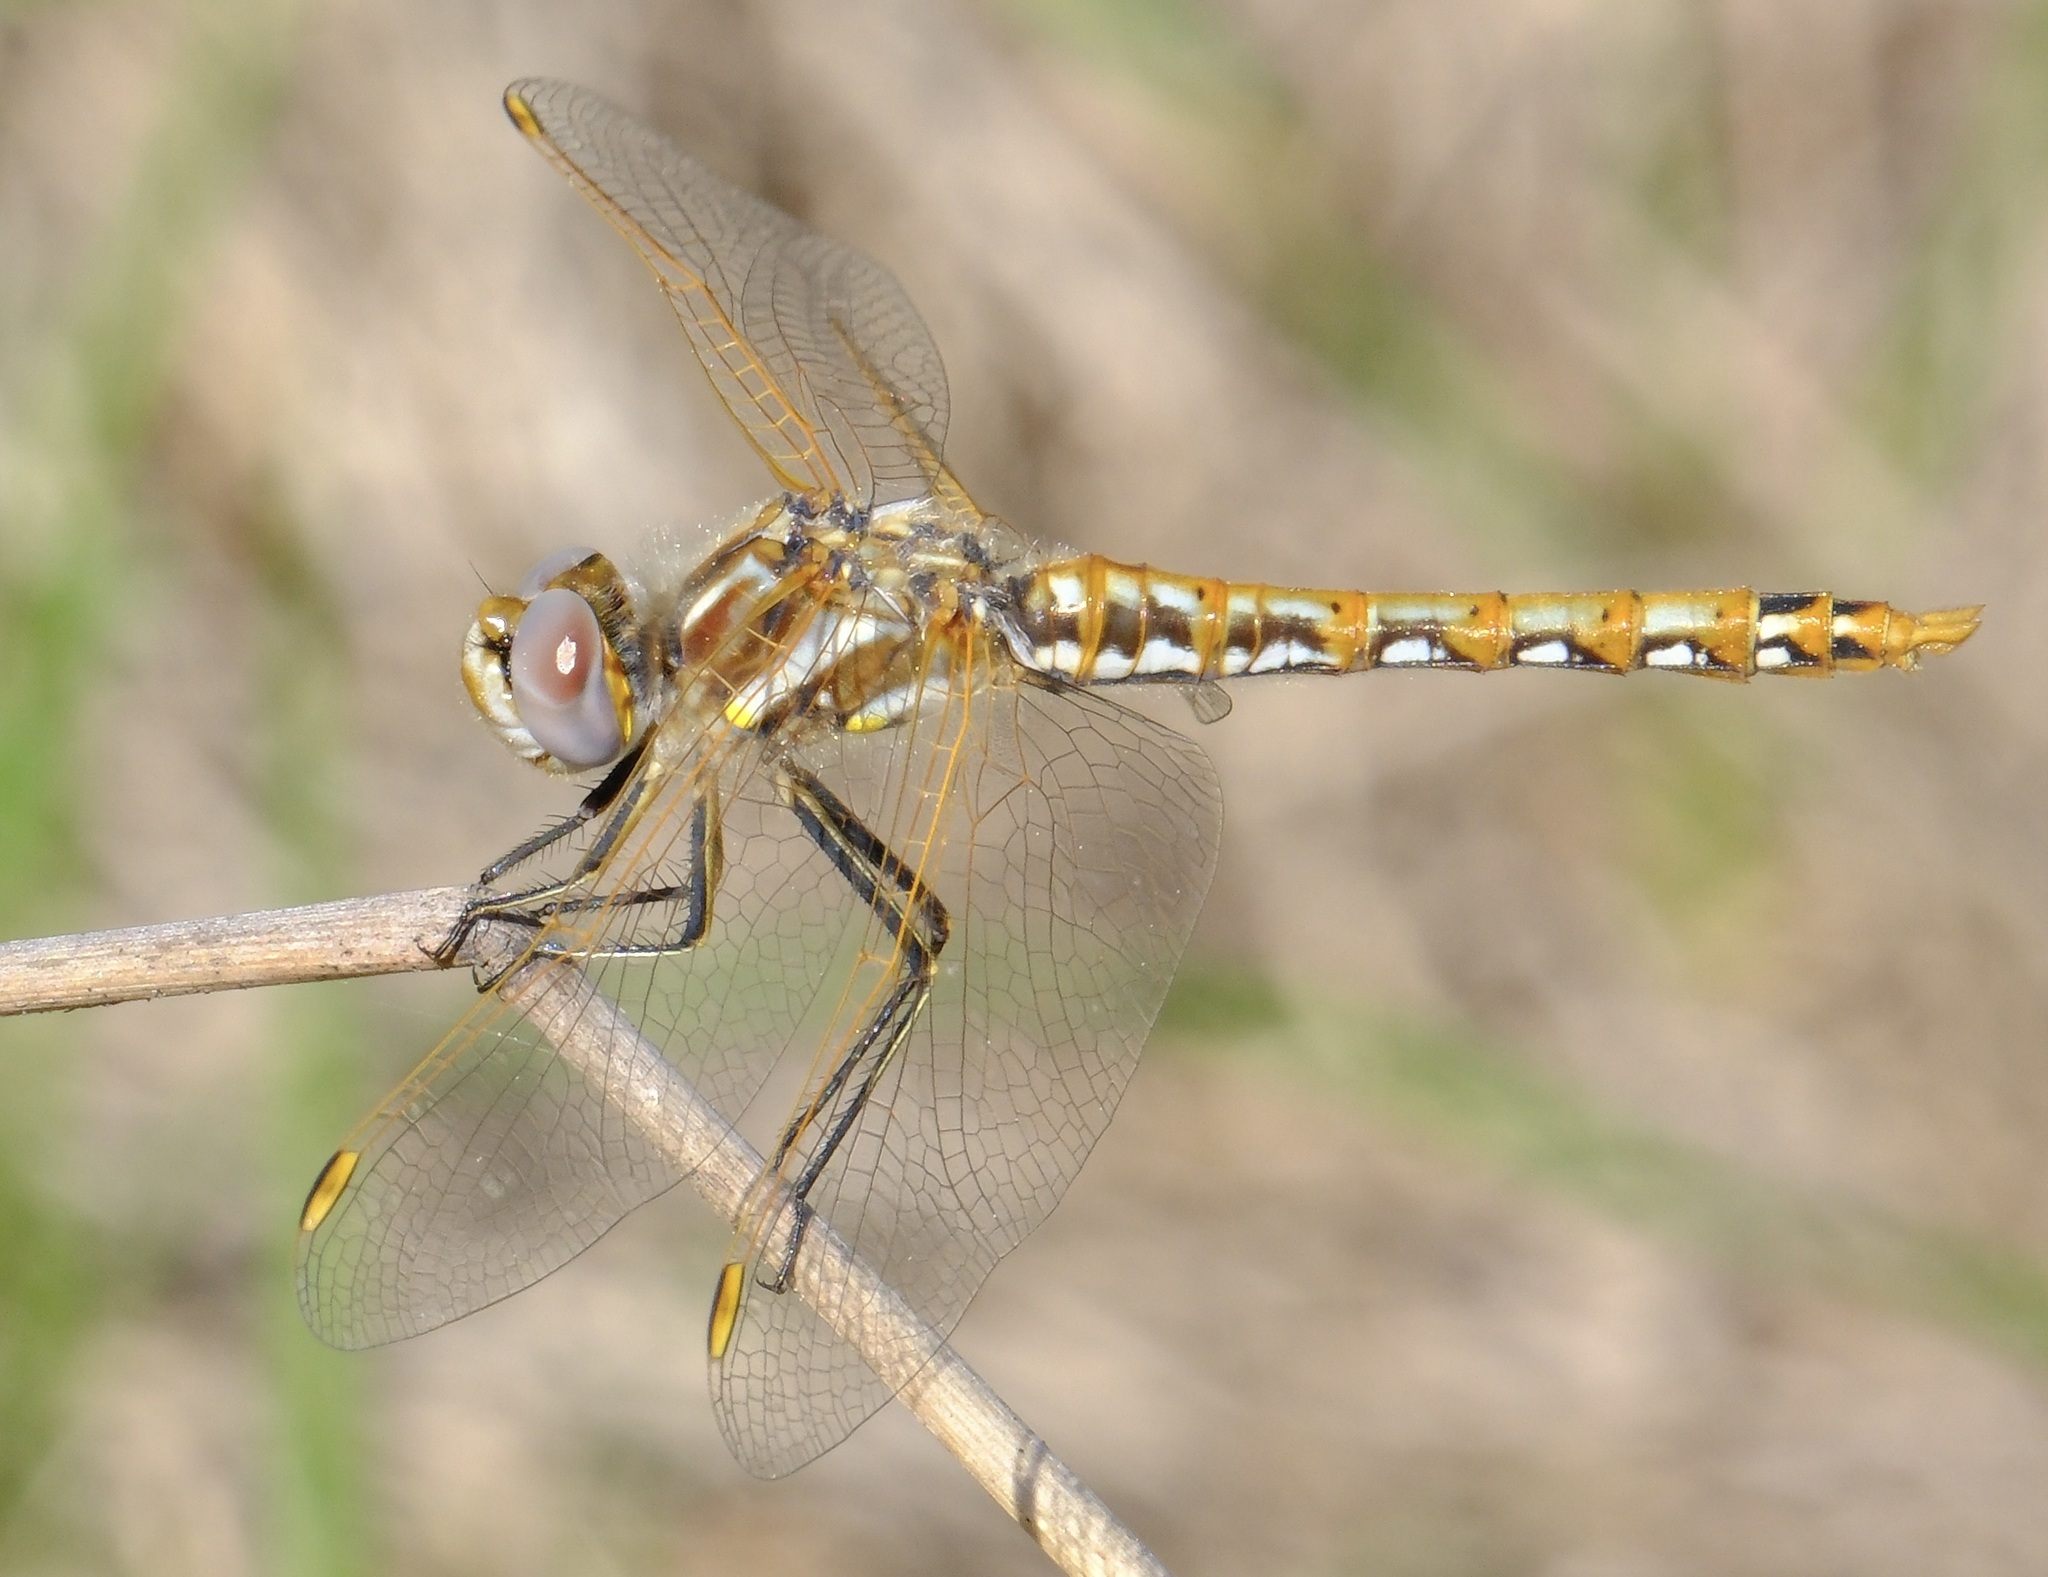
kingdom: Animalia
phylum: Arthropoda
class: Insecta
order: Odonata
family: Libellulidae
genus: Sympetrum
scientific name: Sympetrum corruptum
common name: Variegated meadowhawk
